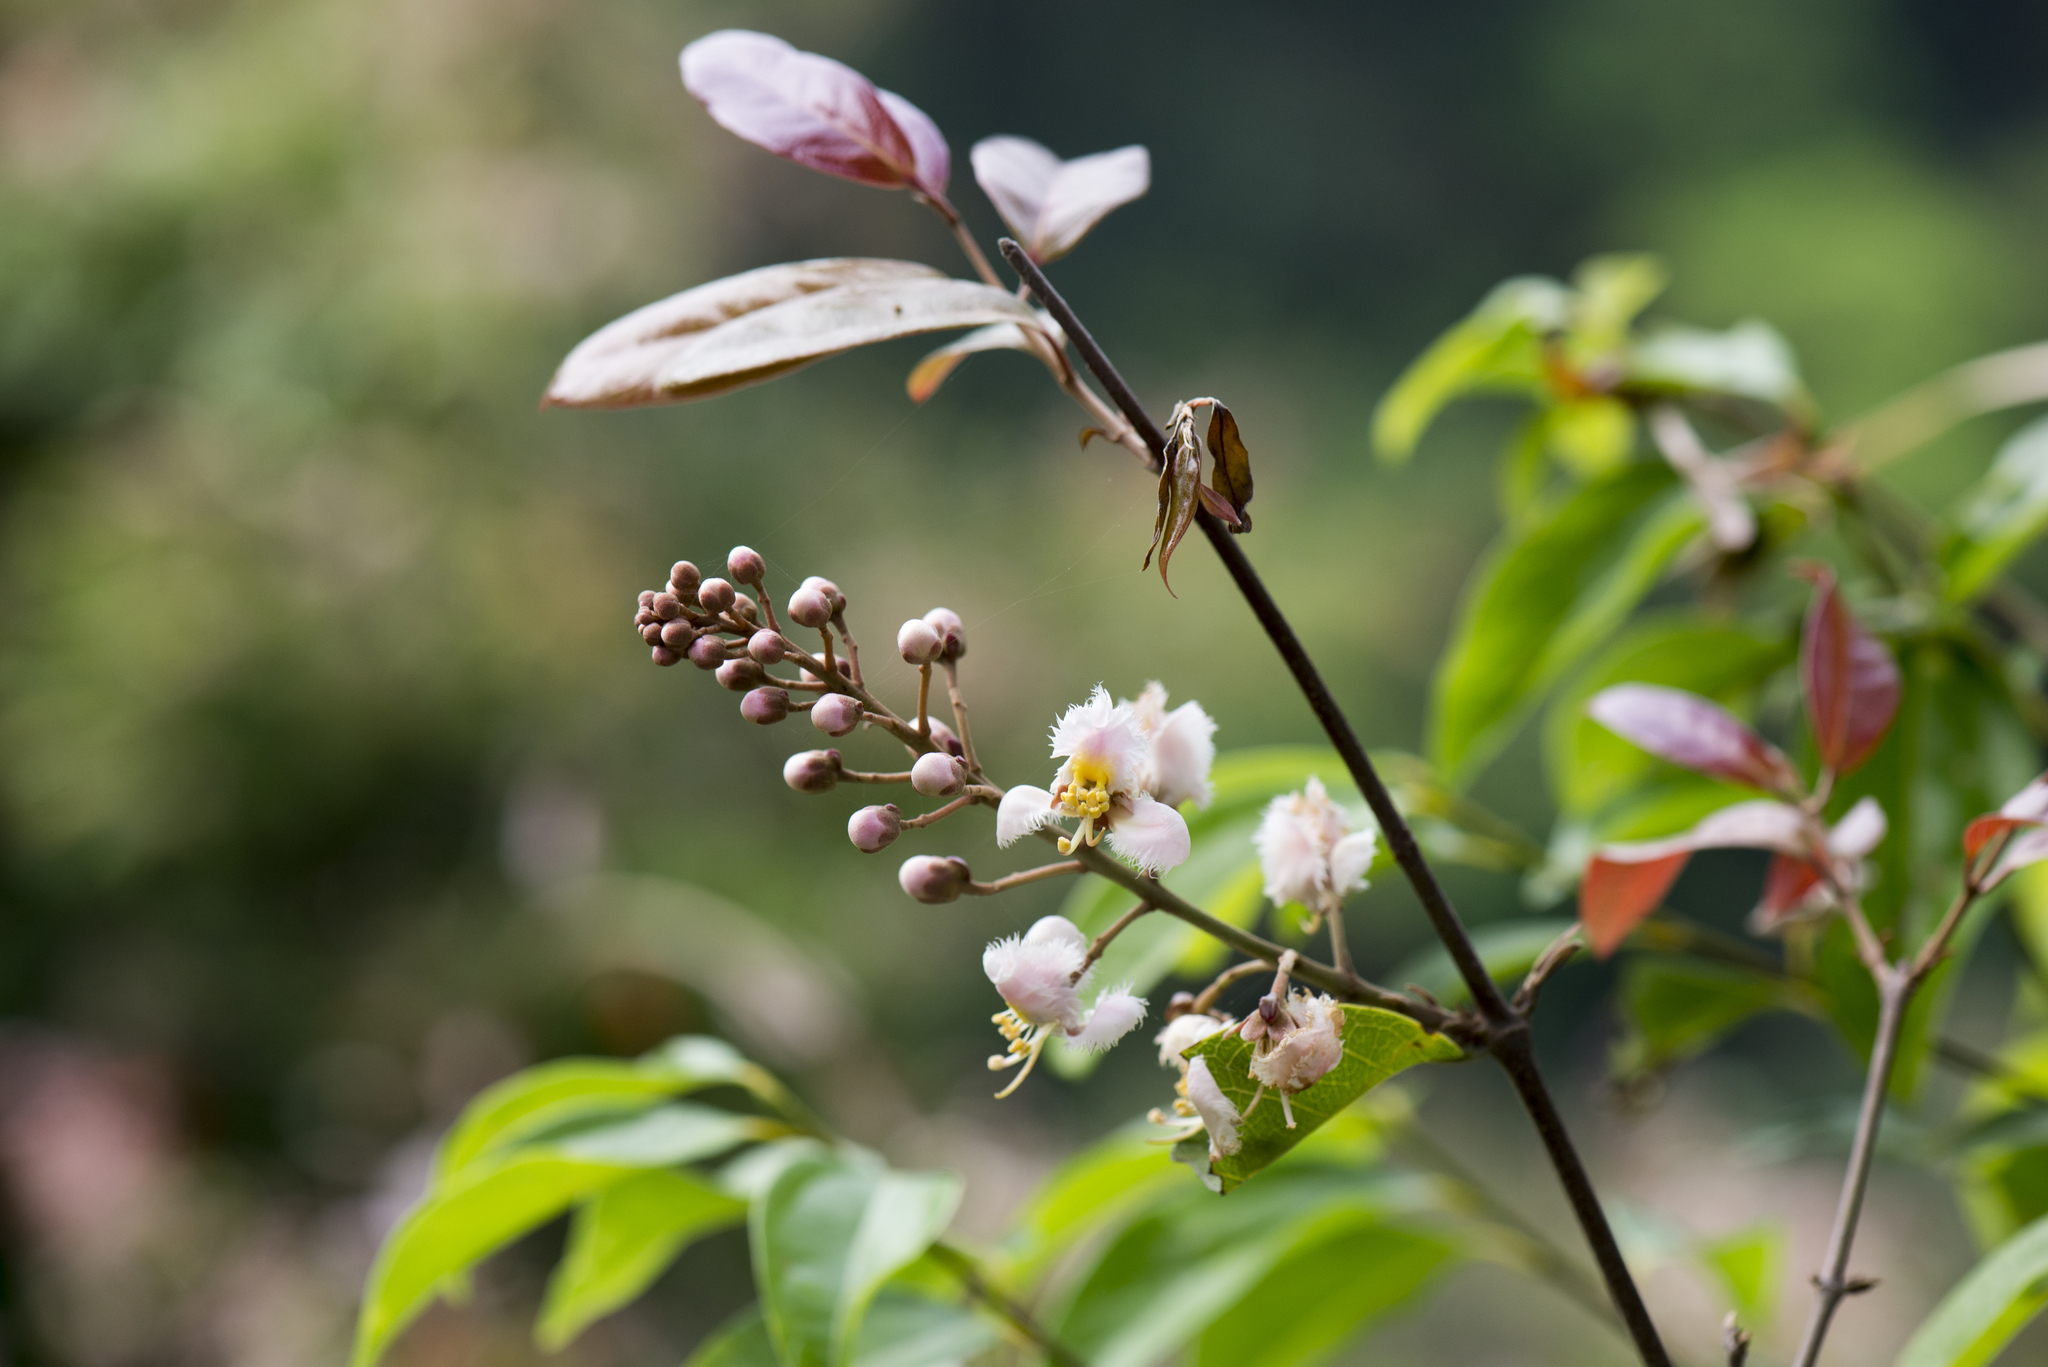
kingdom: Plantae
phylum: Tracheophyta
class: Magnoliopsida
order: Malpighiales
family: Malpighiaceae
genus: Hiptage
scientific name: Hiptage benghalensis
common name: Hiptage
